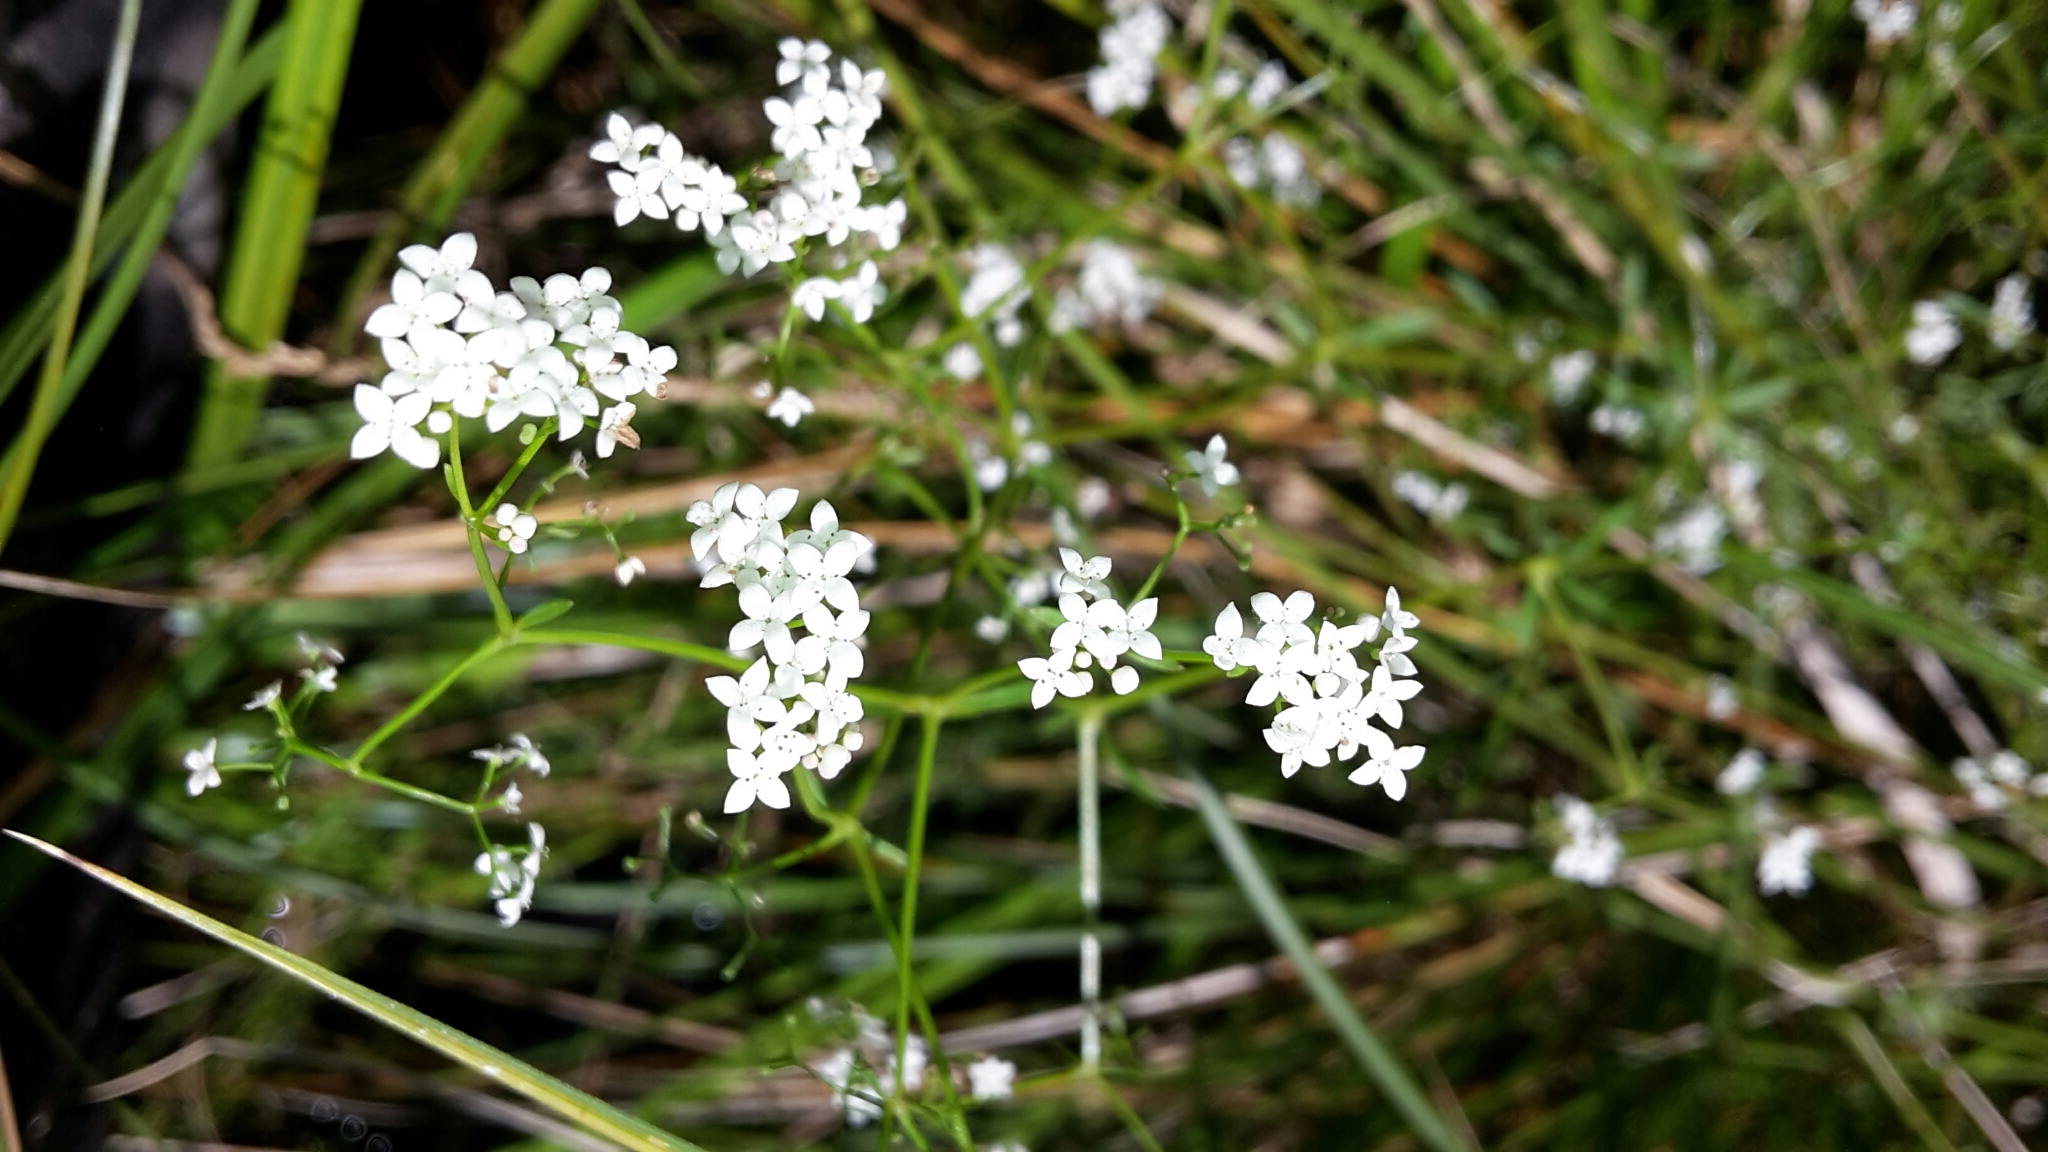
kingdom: Plantae
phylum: Tracheophyta
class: Magnoliopsida
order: Gentianales
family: Rubiaceae
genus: Galium
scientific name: Galium palustre
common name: Common marsh-bedstraw
